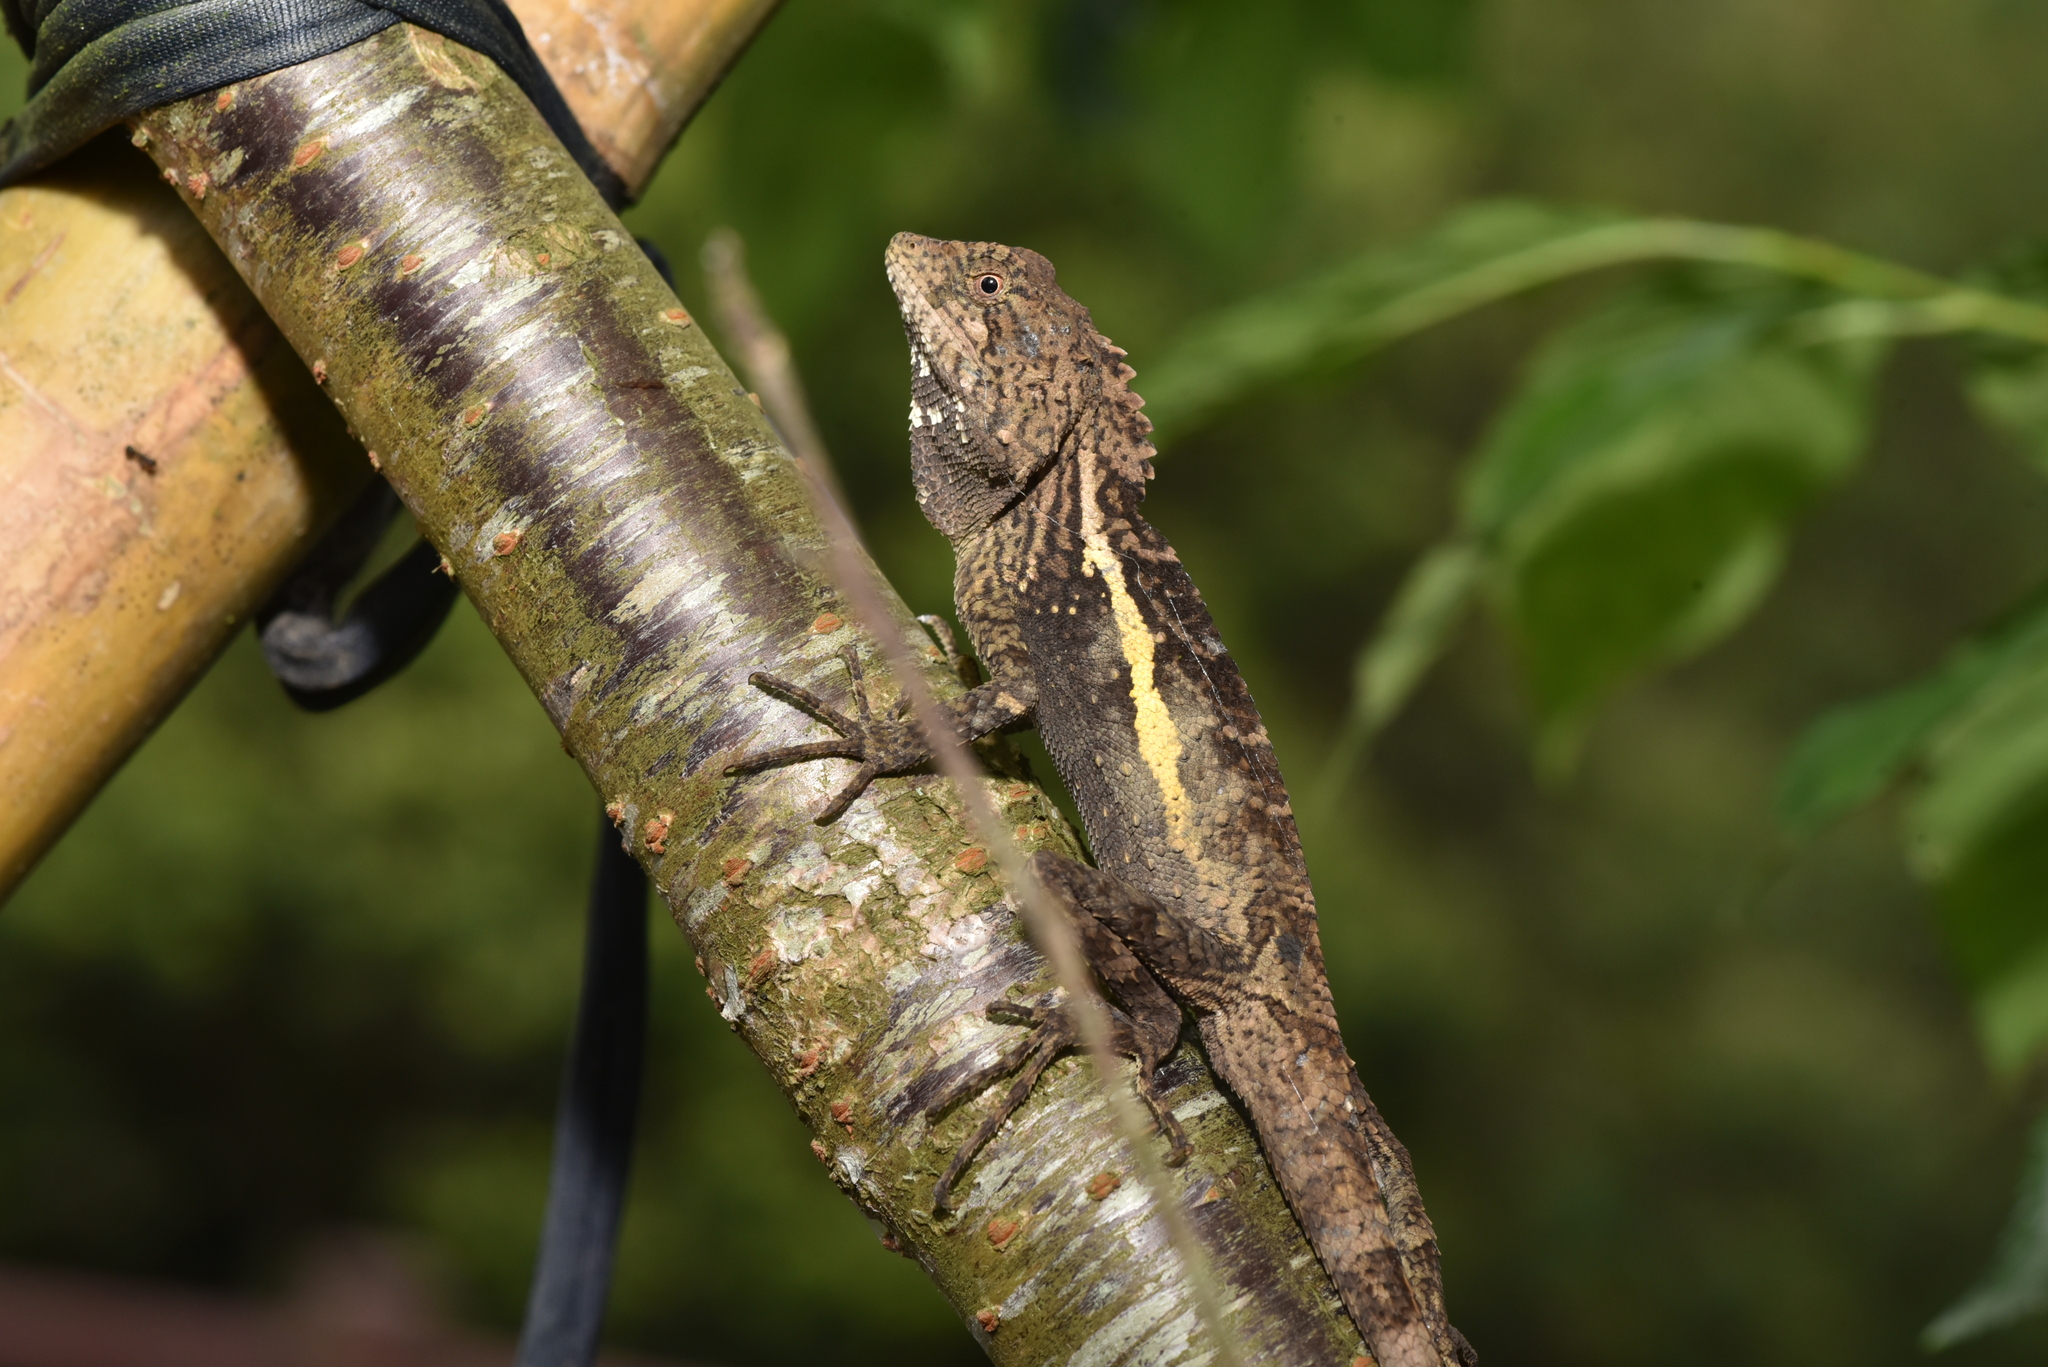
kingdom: Animalia
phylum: Chordata
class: Squamata
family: Agamidae
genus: Diploderma
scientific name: Diploderma swinhonis
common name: Taiwan japalure
